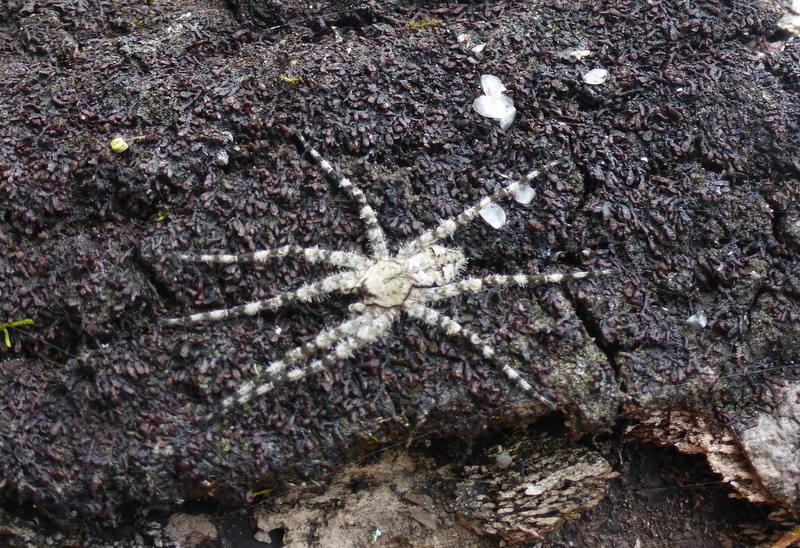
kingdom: Animalia
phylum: Arthropoda
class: Arachnida
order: Araneae
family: Pisauridae
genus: Dolomedes
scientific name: Dolomedes albineus
